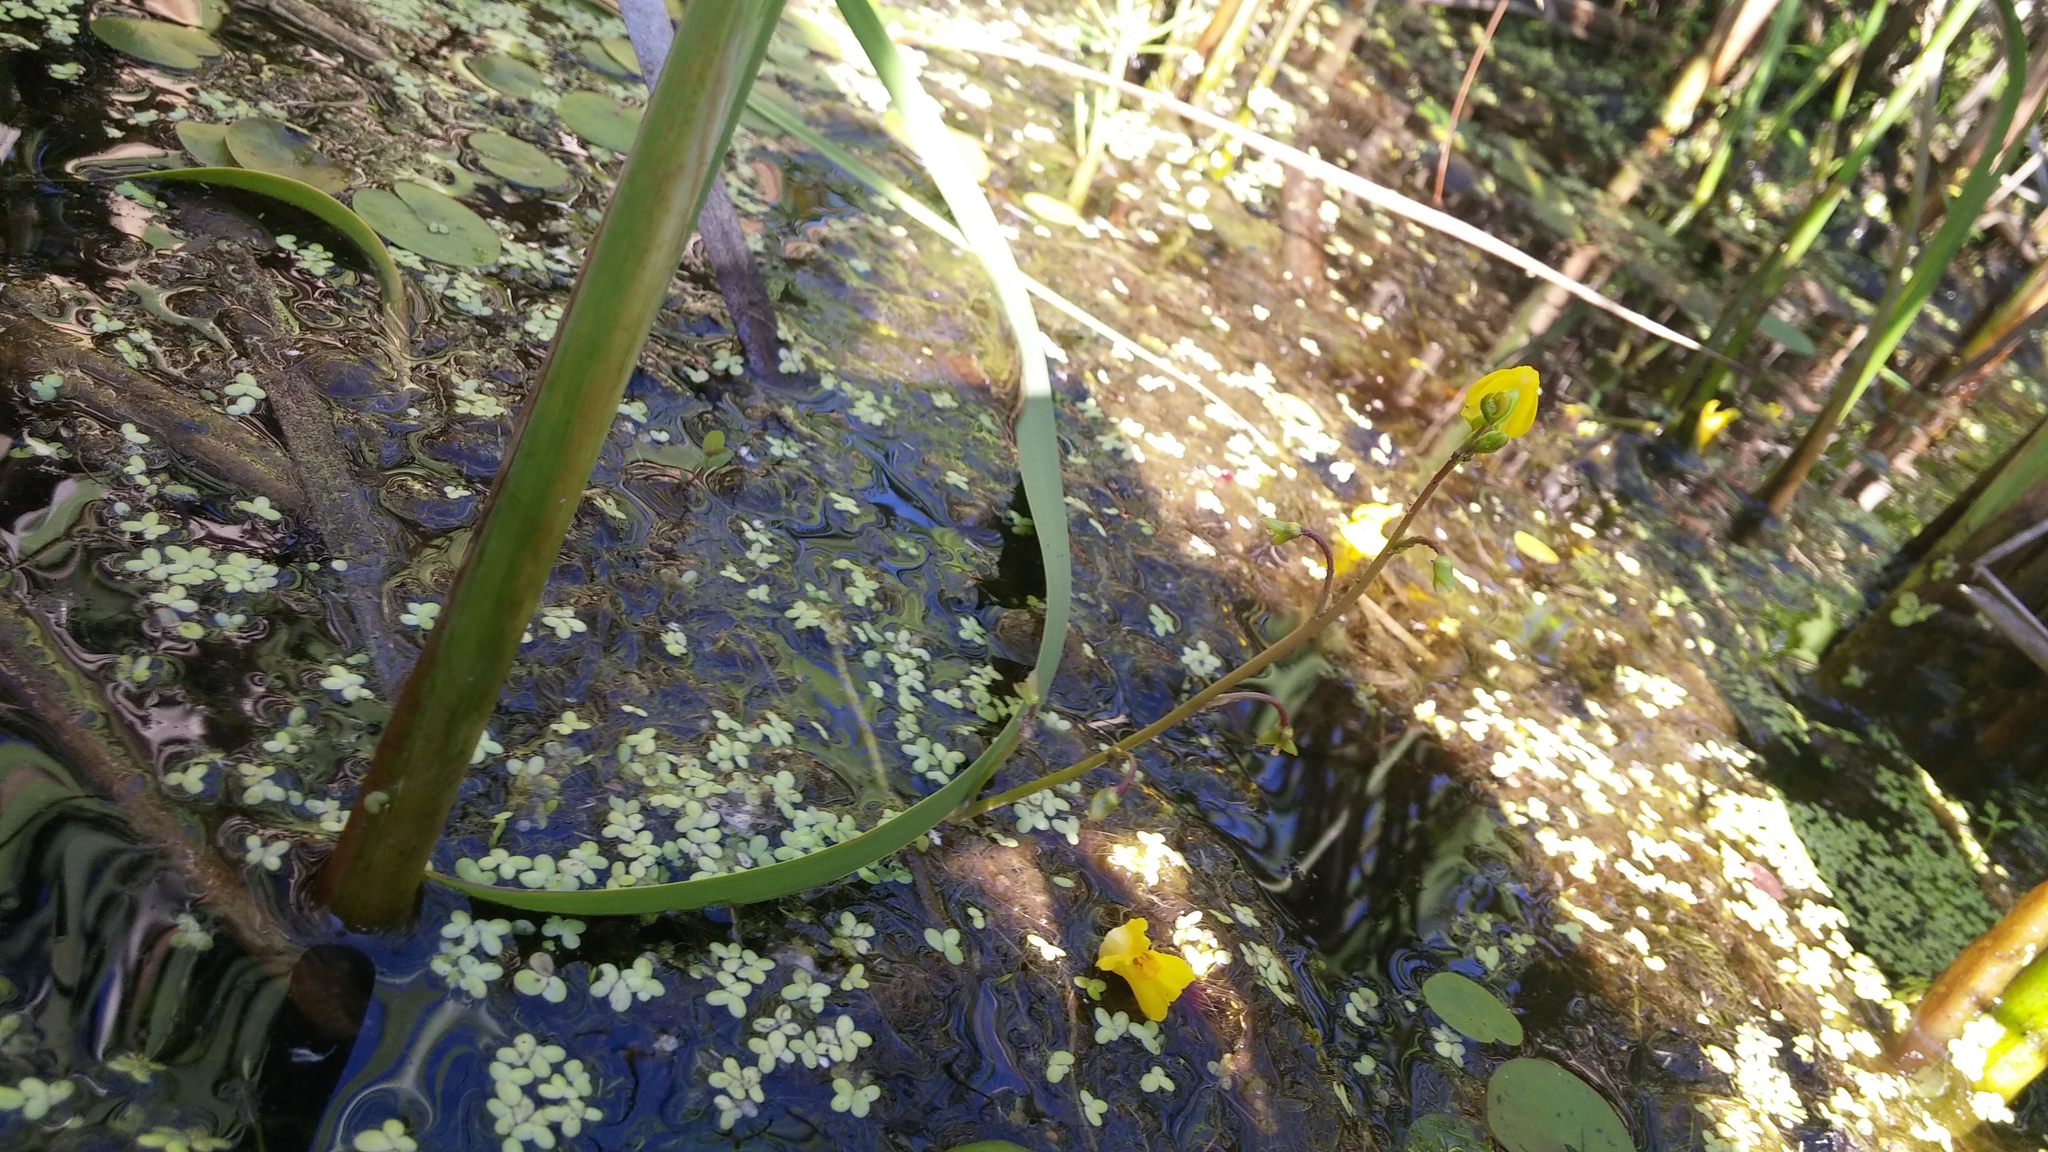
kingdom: Plantae
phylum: Tracheophyta
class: Magnoliopsida
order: Lamiales
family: Lentibulariaceae
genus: Utricularia
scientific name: Utricularia macrorhiza
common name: Common bladderwort
